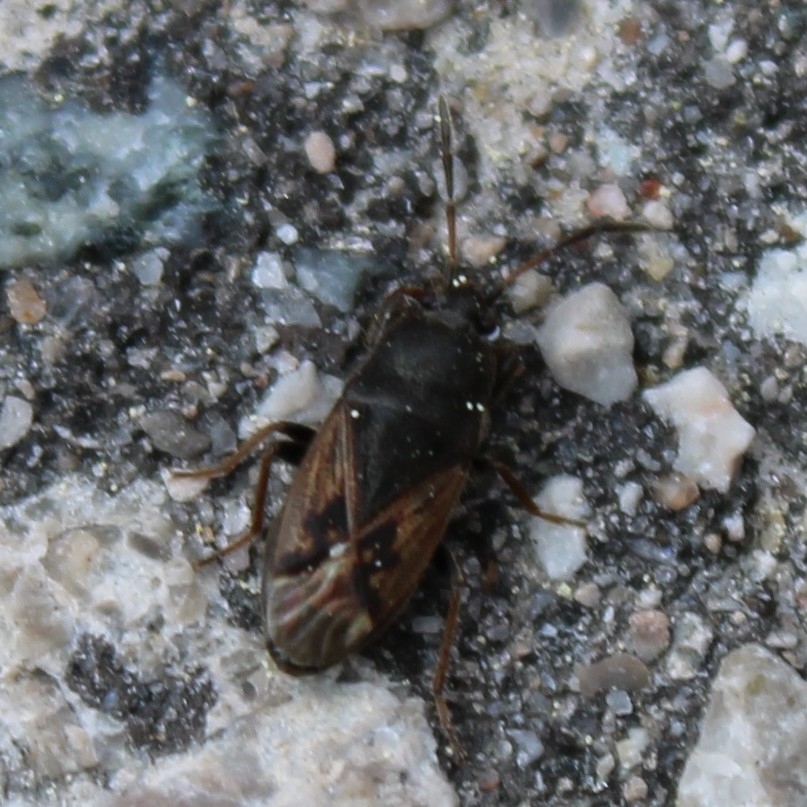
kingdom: Animalia
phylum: Arthropoda
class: Insecta
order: Hemiptera
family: Rhyparochromidae
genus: Megalonotus
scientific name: Megalonotus sabulicola
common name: Seed bug
